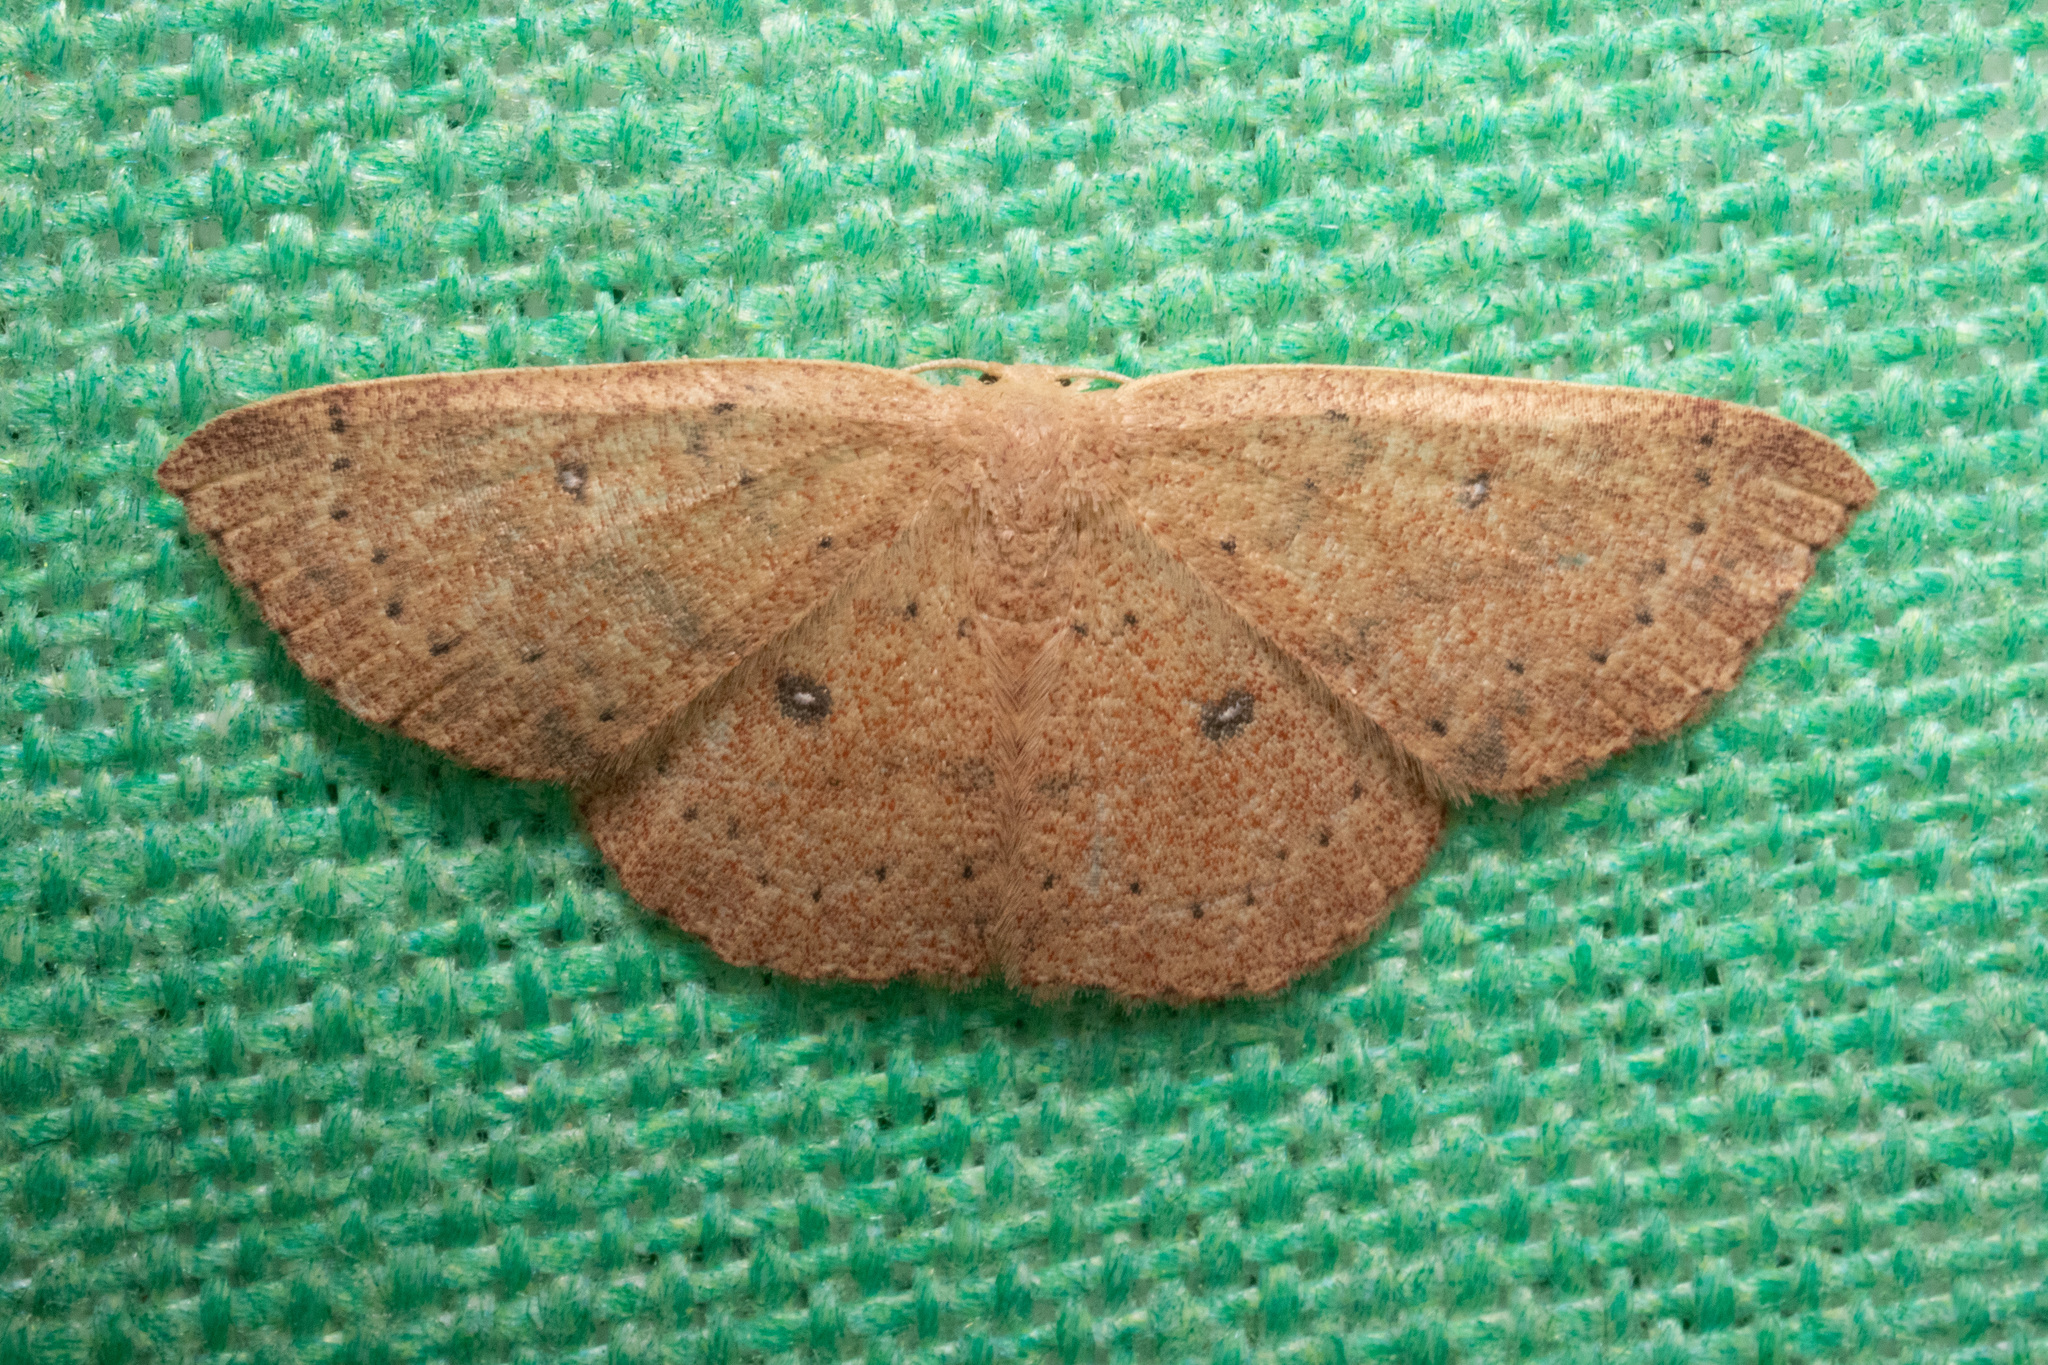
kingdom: Animalia
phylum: Arthropoda
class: Insecta
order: Lepidoptera
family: Geometridae
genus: Cyclophora
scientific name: Cyclophora packardi
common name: Packard's wave
